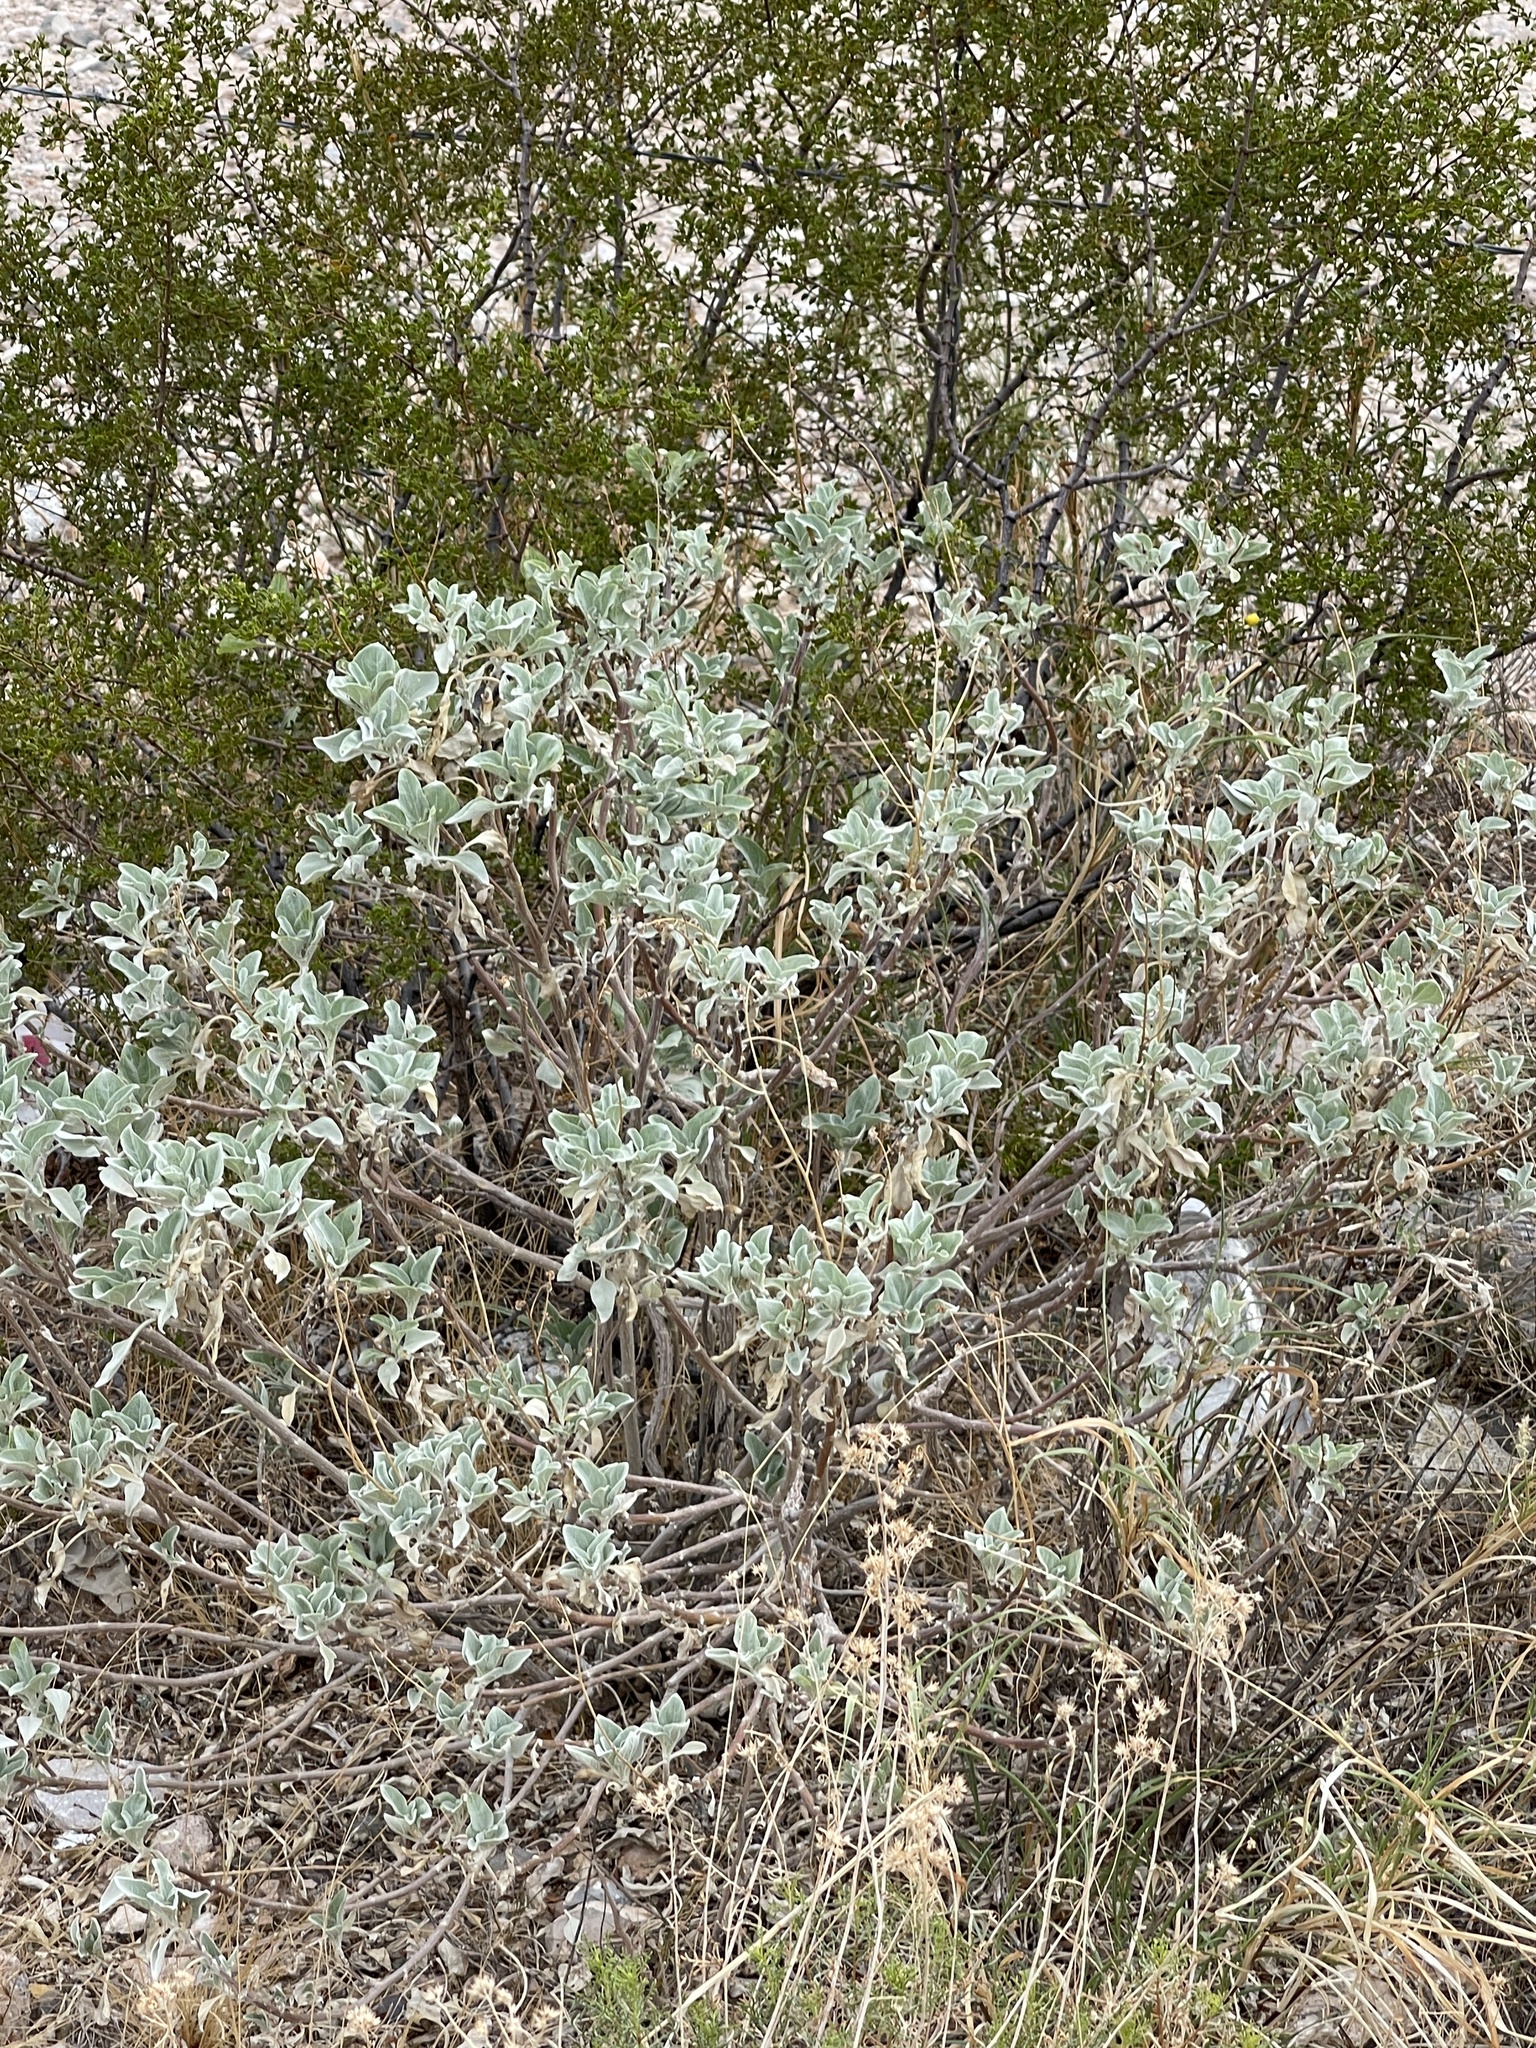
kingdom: Plantae
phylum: Tracheophyta
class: Magnoliopsida
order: Asterales
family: Asteraceae
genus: Encelia
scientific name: Encelia farinosa
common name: Brittlebush
